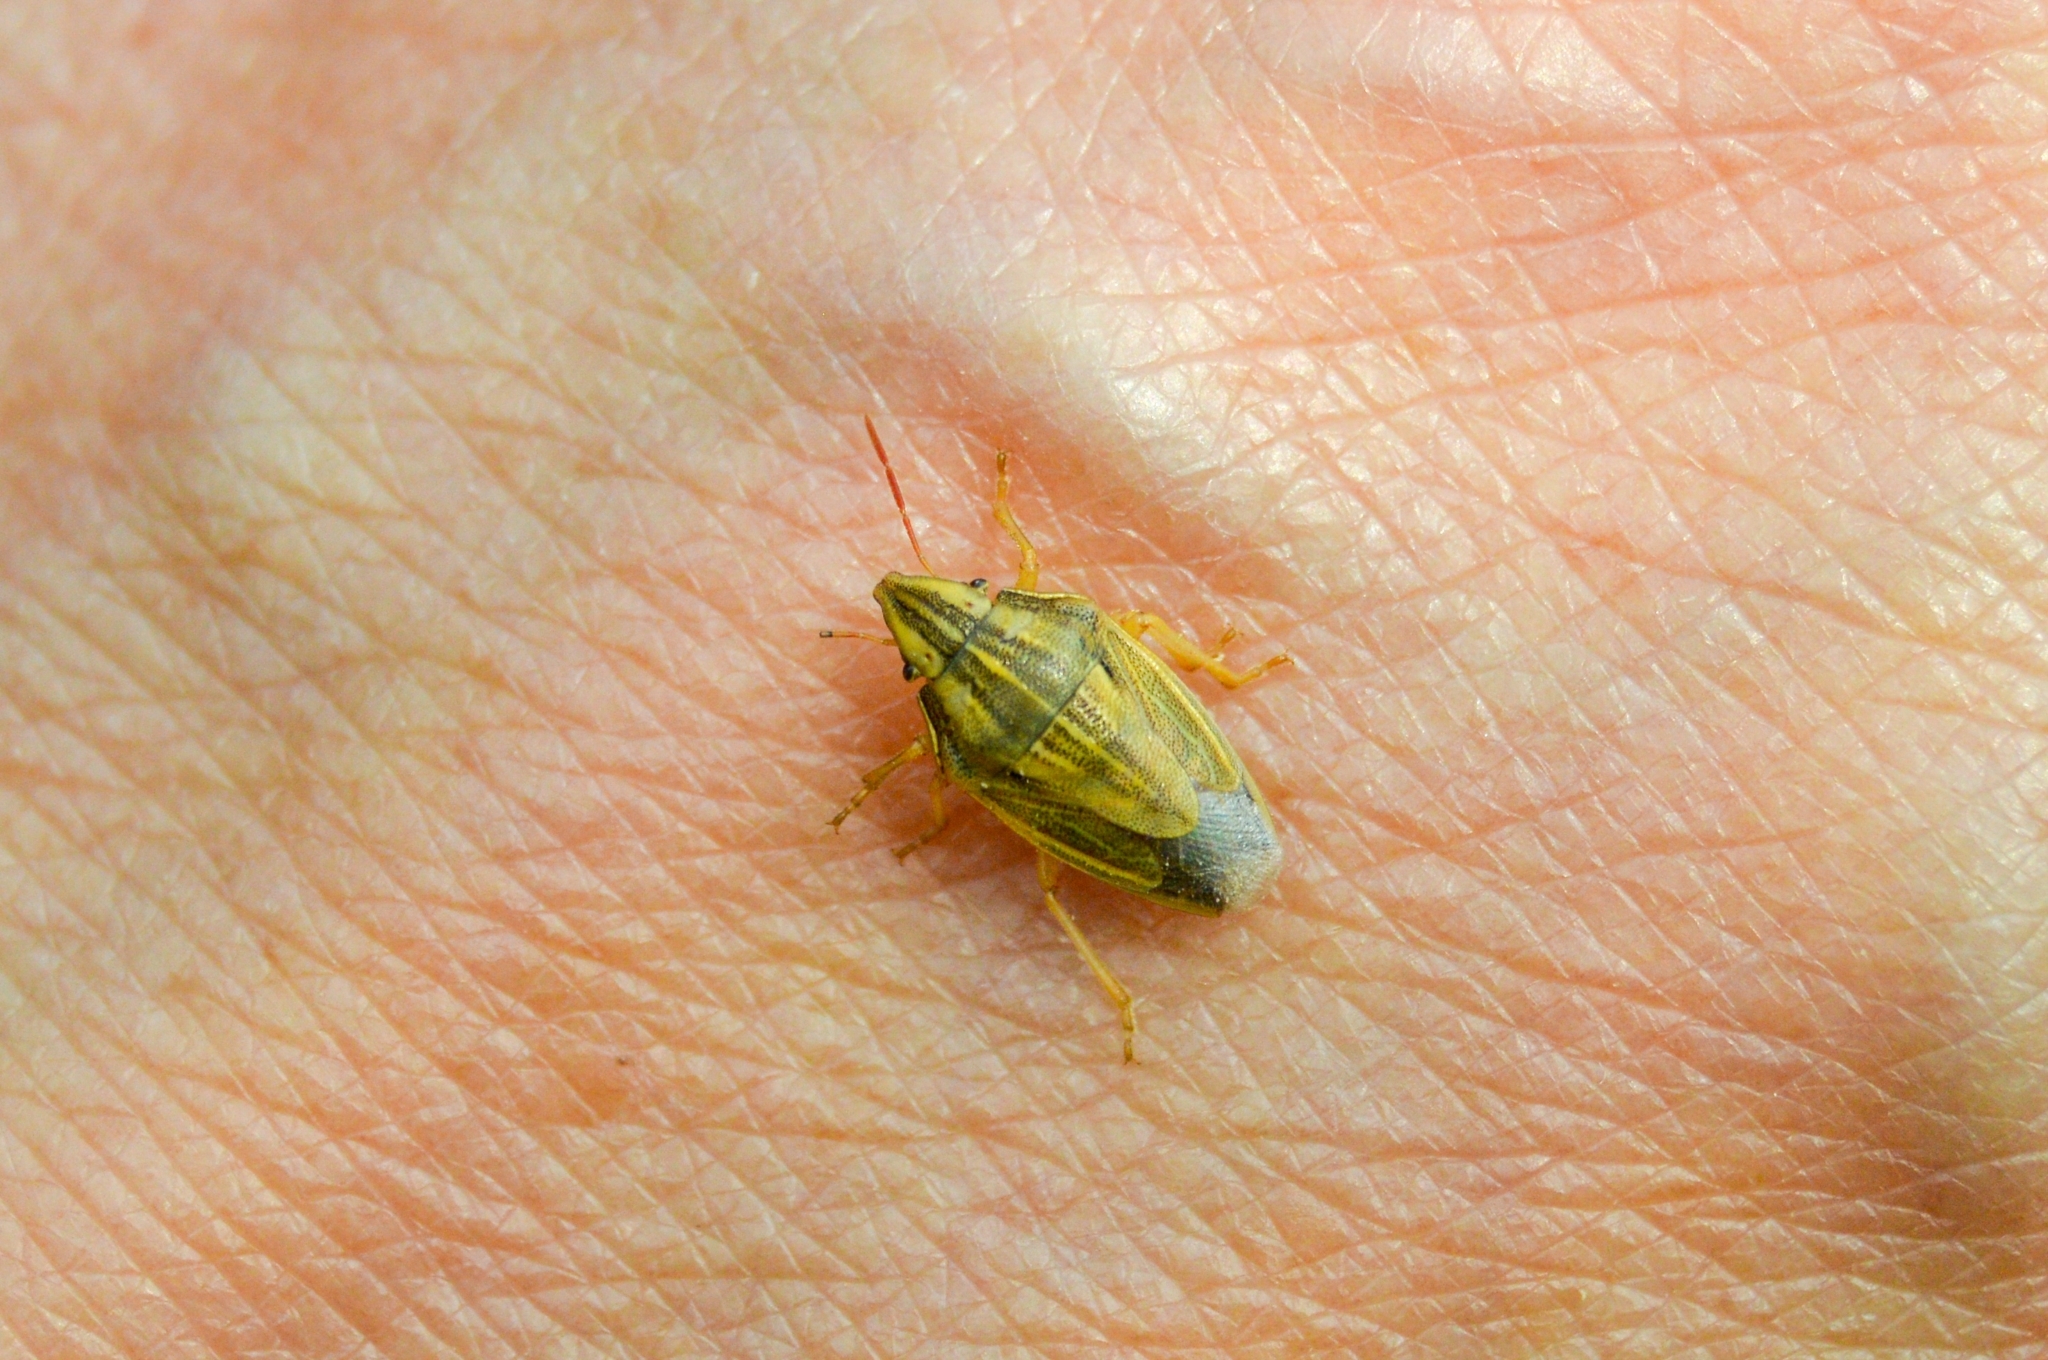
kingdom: Animalia
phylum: Arthropoda
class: Insecta
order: Hemiptera
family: Pentatomidae
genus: Aelia
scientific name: Aelia acuminata
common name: Bishop's mitre
